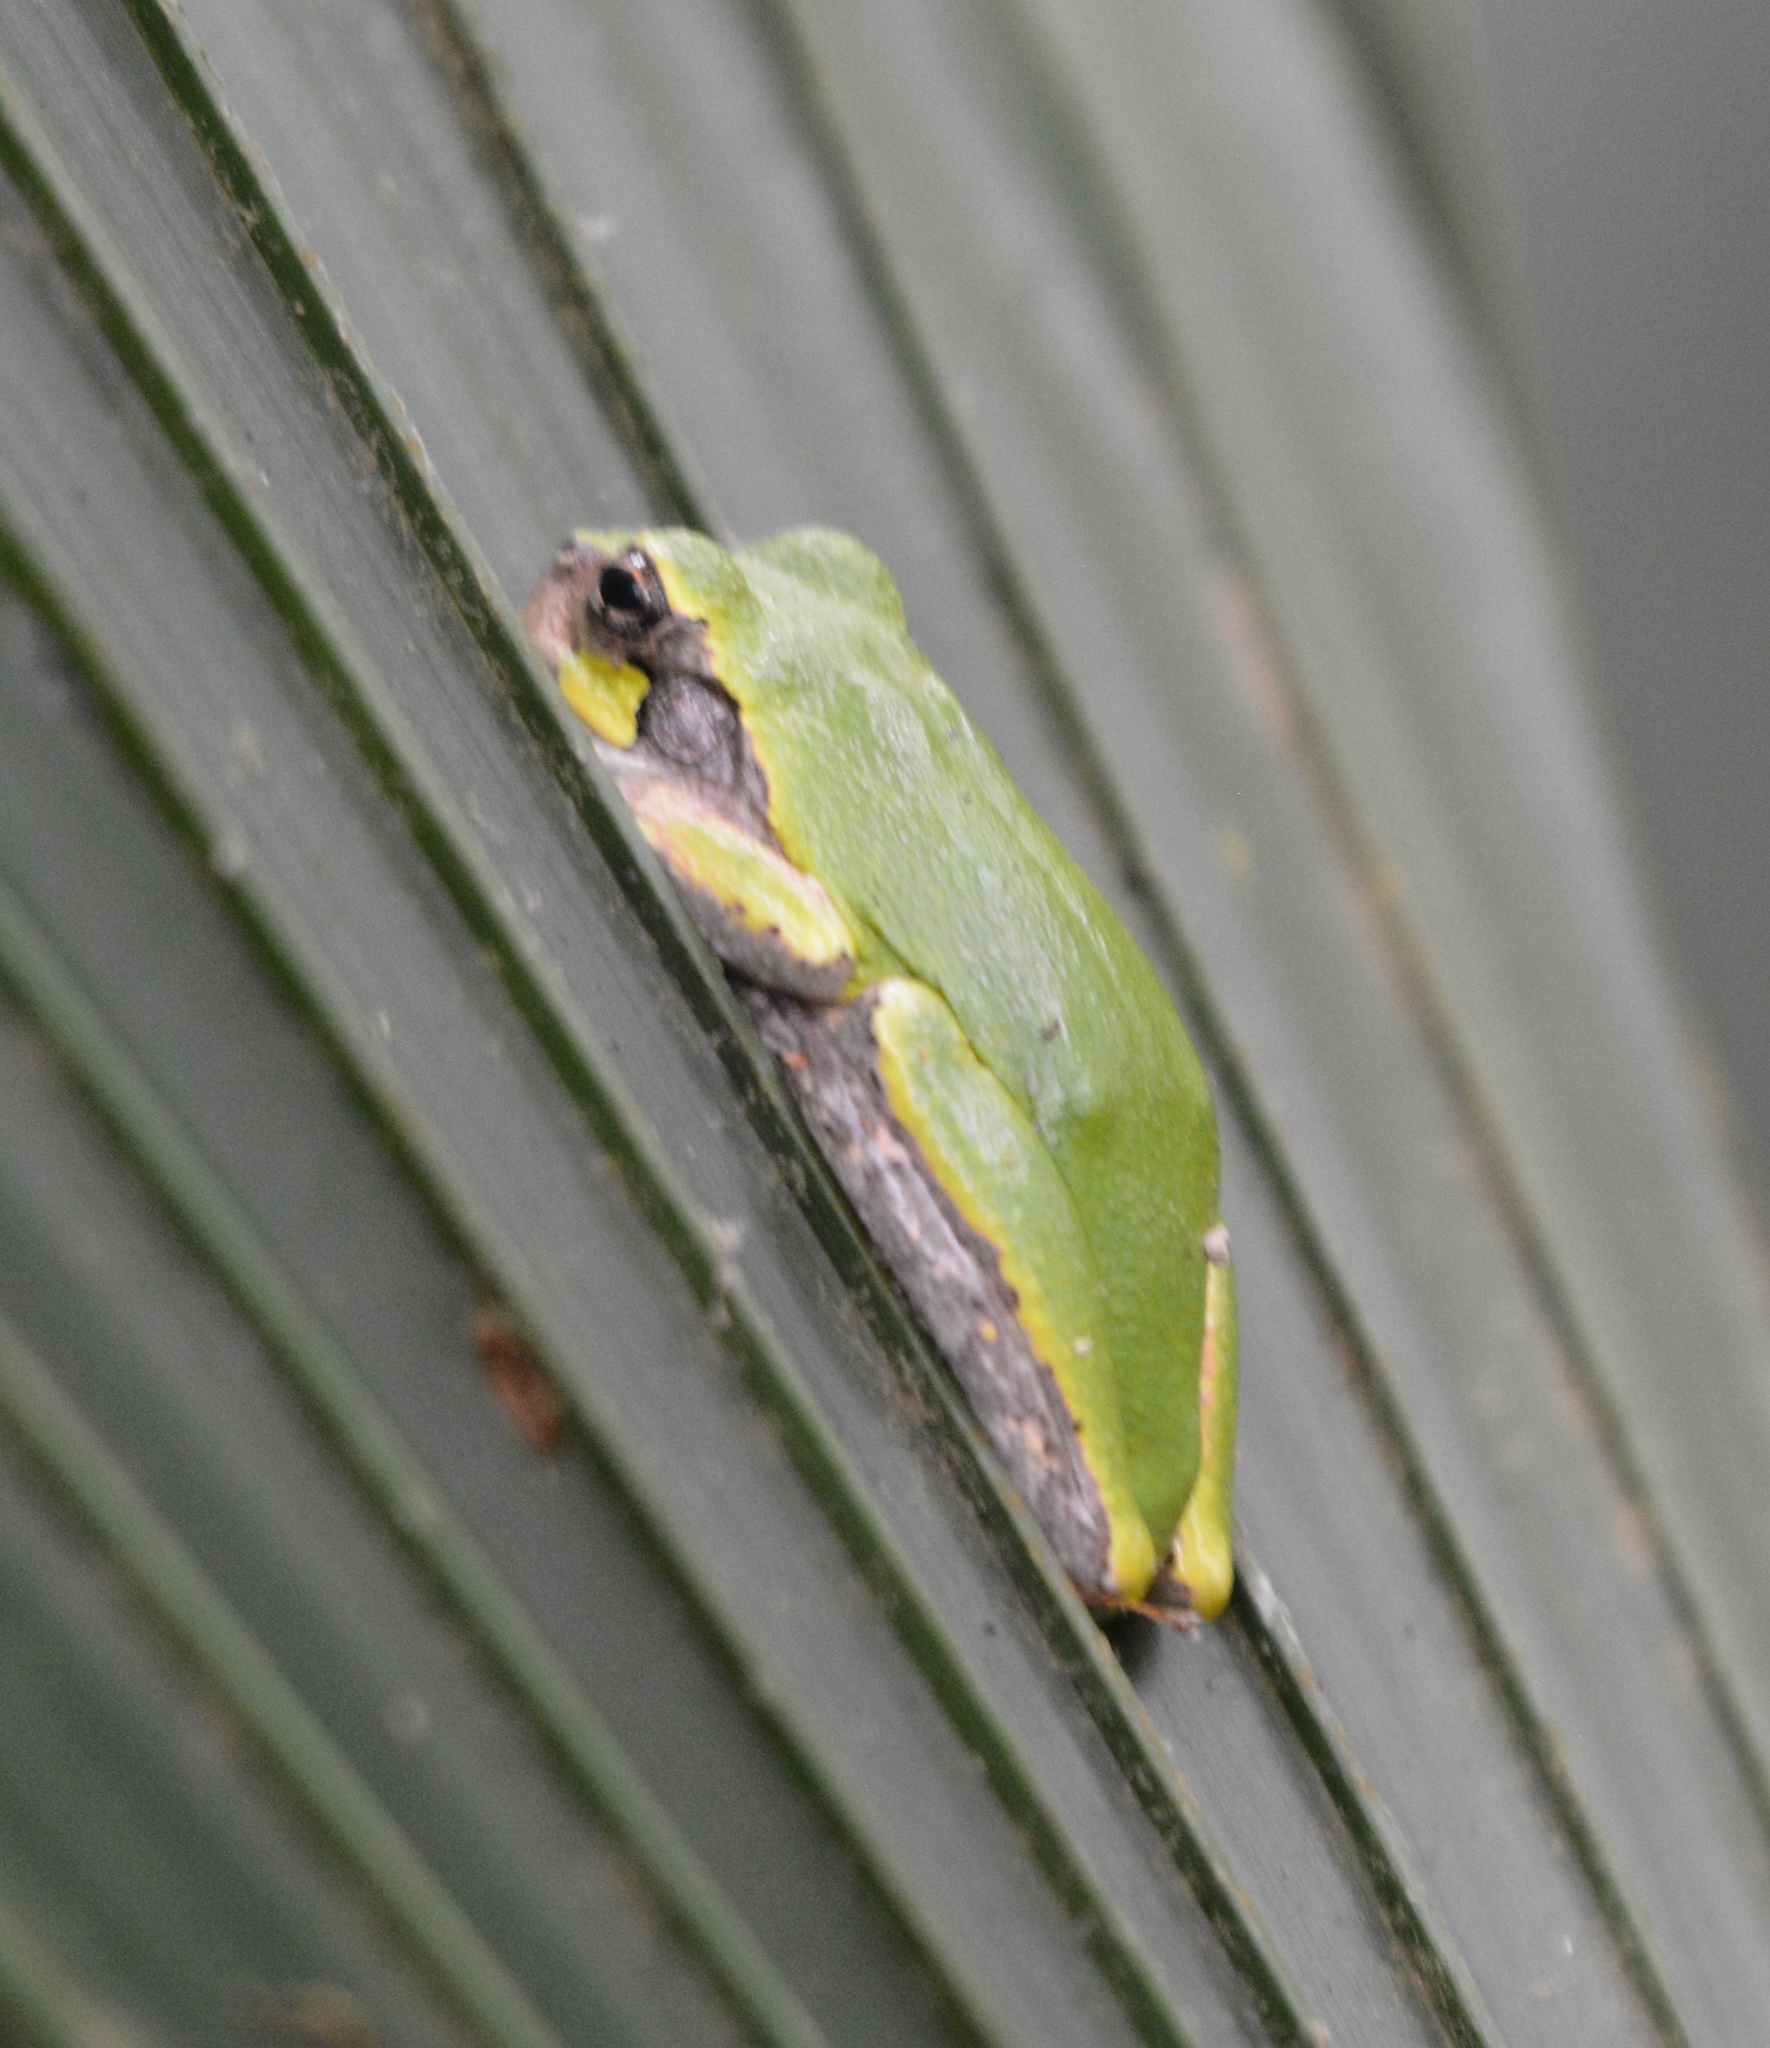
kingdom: Animalia
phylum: Chordata
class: Amphibia
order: Anura
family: Hylidae
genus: Dryophytes
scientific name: Dryophytes avivoca
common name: Bird-voiced treefrog
